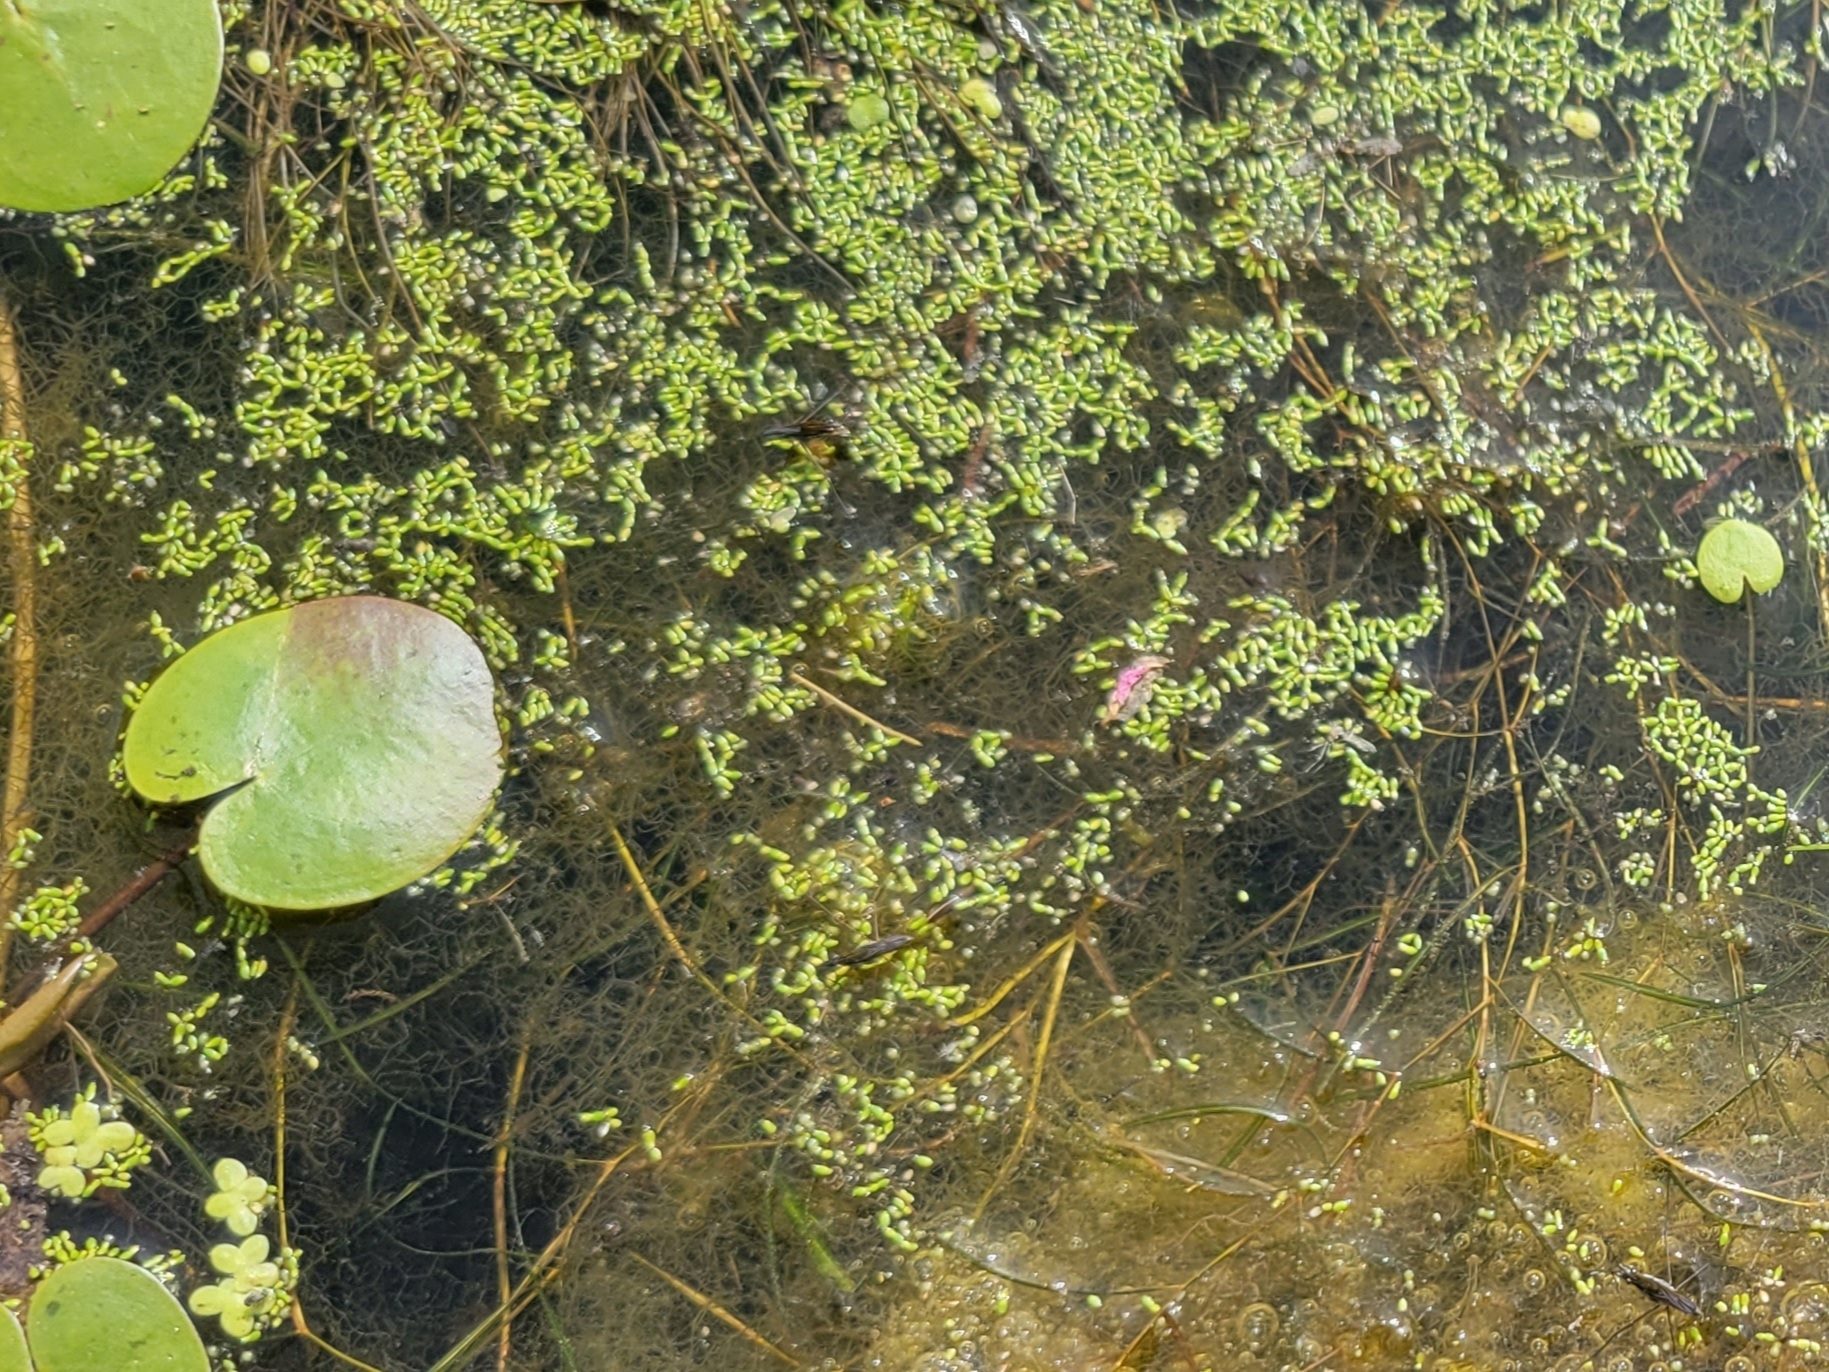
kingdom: Plantae
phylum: Tracheophyta
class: Liliopsida
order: Alismatales
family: Araceae
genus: Wolffia
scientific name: Wolffia borealis
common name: Dotted watermeal
